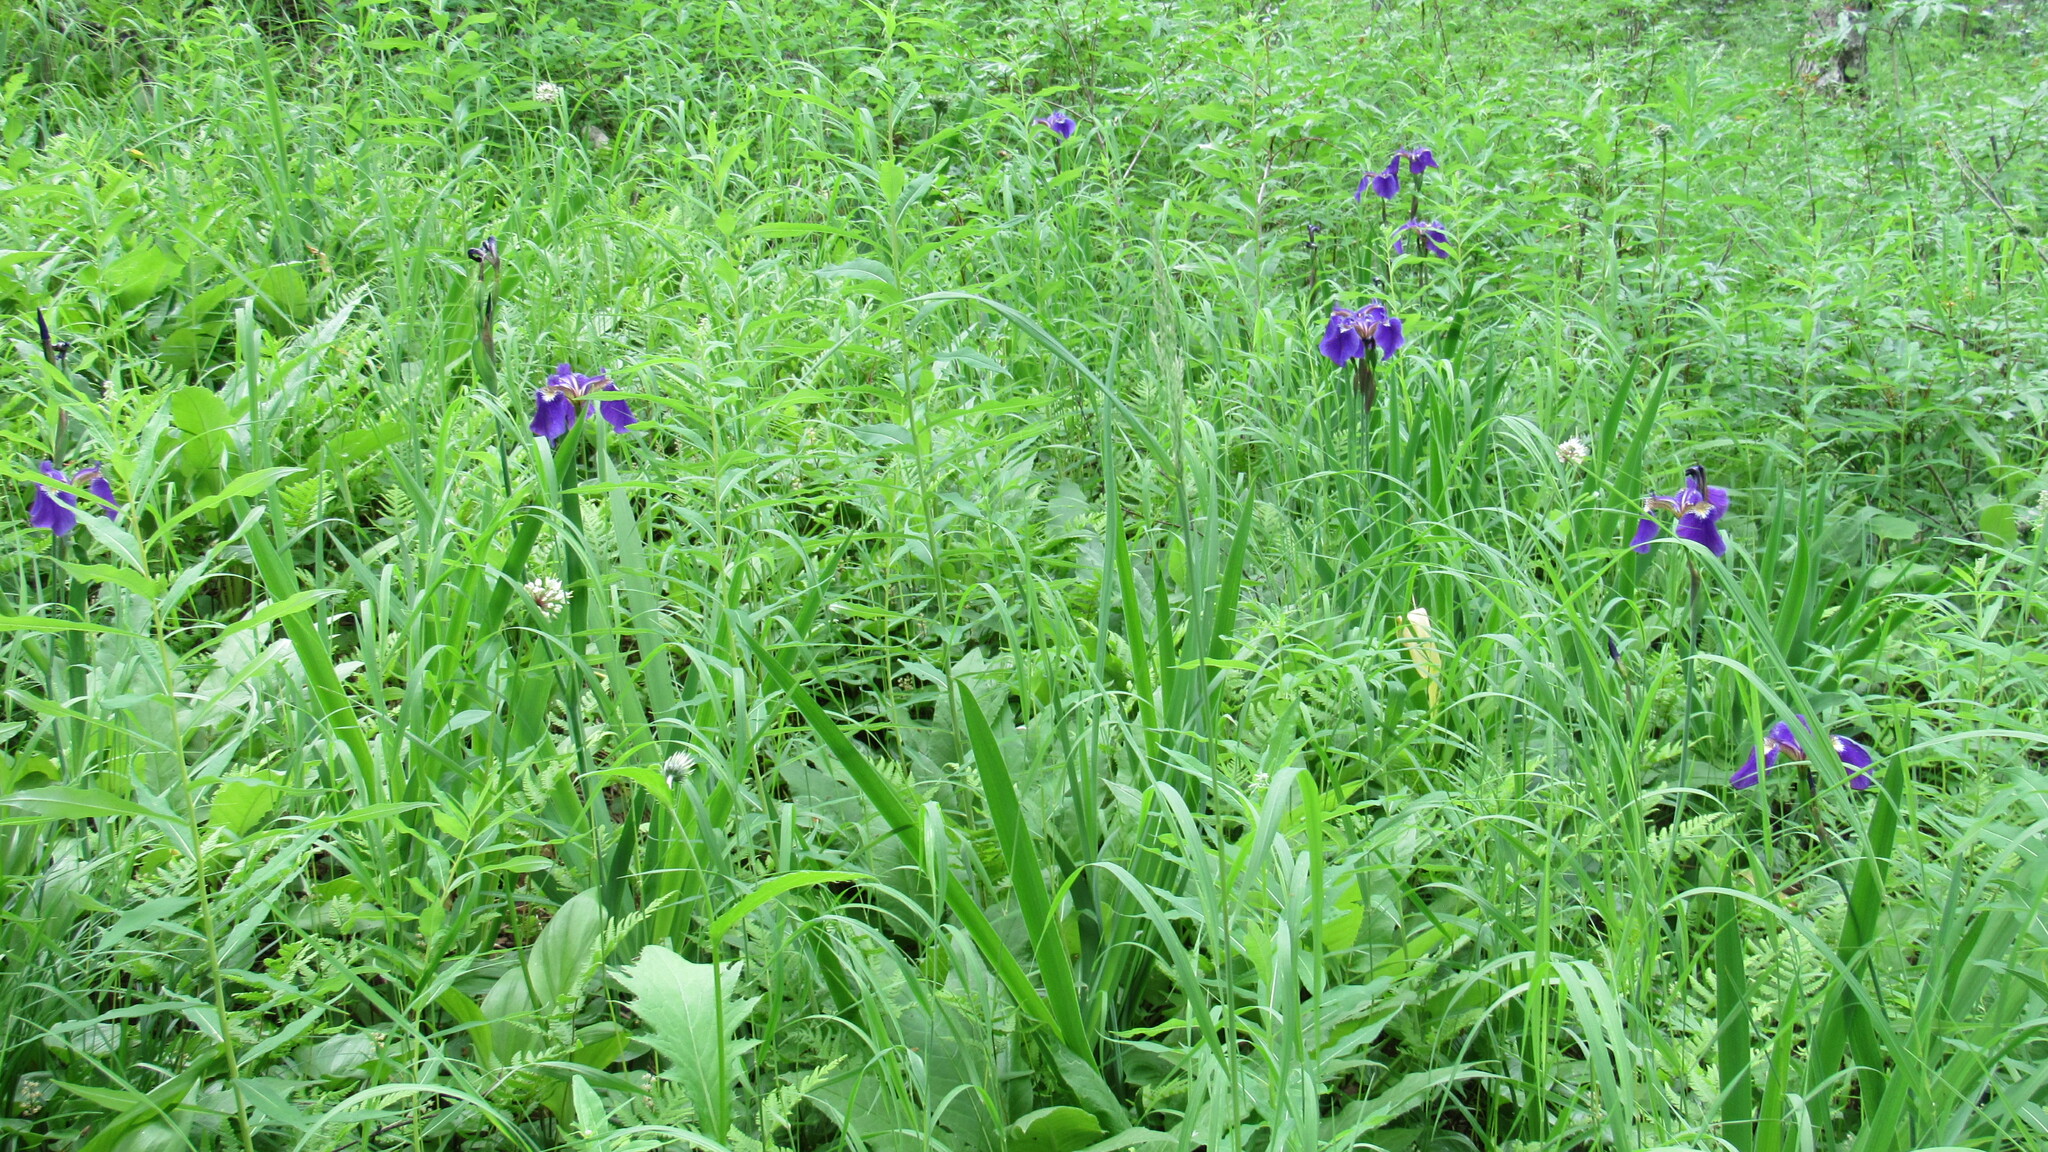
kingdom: Plantae
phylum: Tracheophyta
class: Liliopsida
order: Asparagales
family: Iridaceae
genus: Iris
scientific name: Iris setosa
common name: Arctic blue flag
